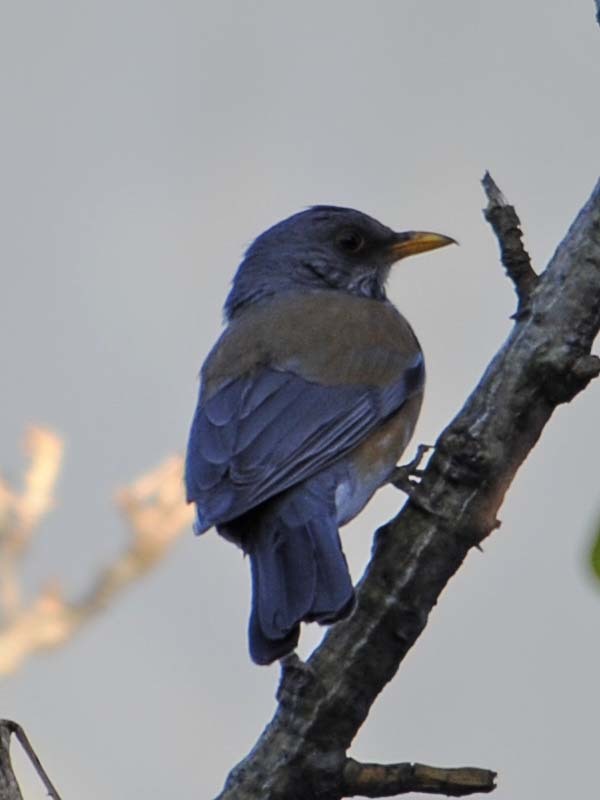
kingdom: Animalia
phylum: Chordata
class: Aves
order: Passeriformes
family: Turdidae
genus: Turdus
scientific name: Turdus rufopalliatus
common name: Rufous-backed robin
